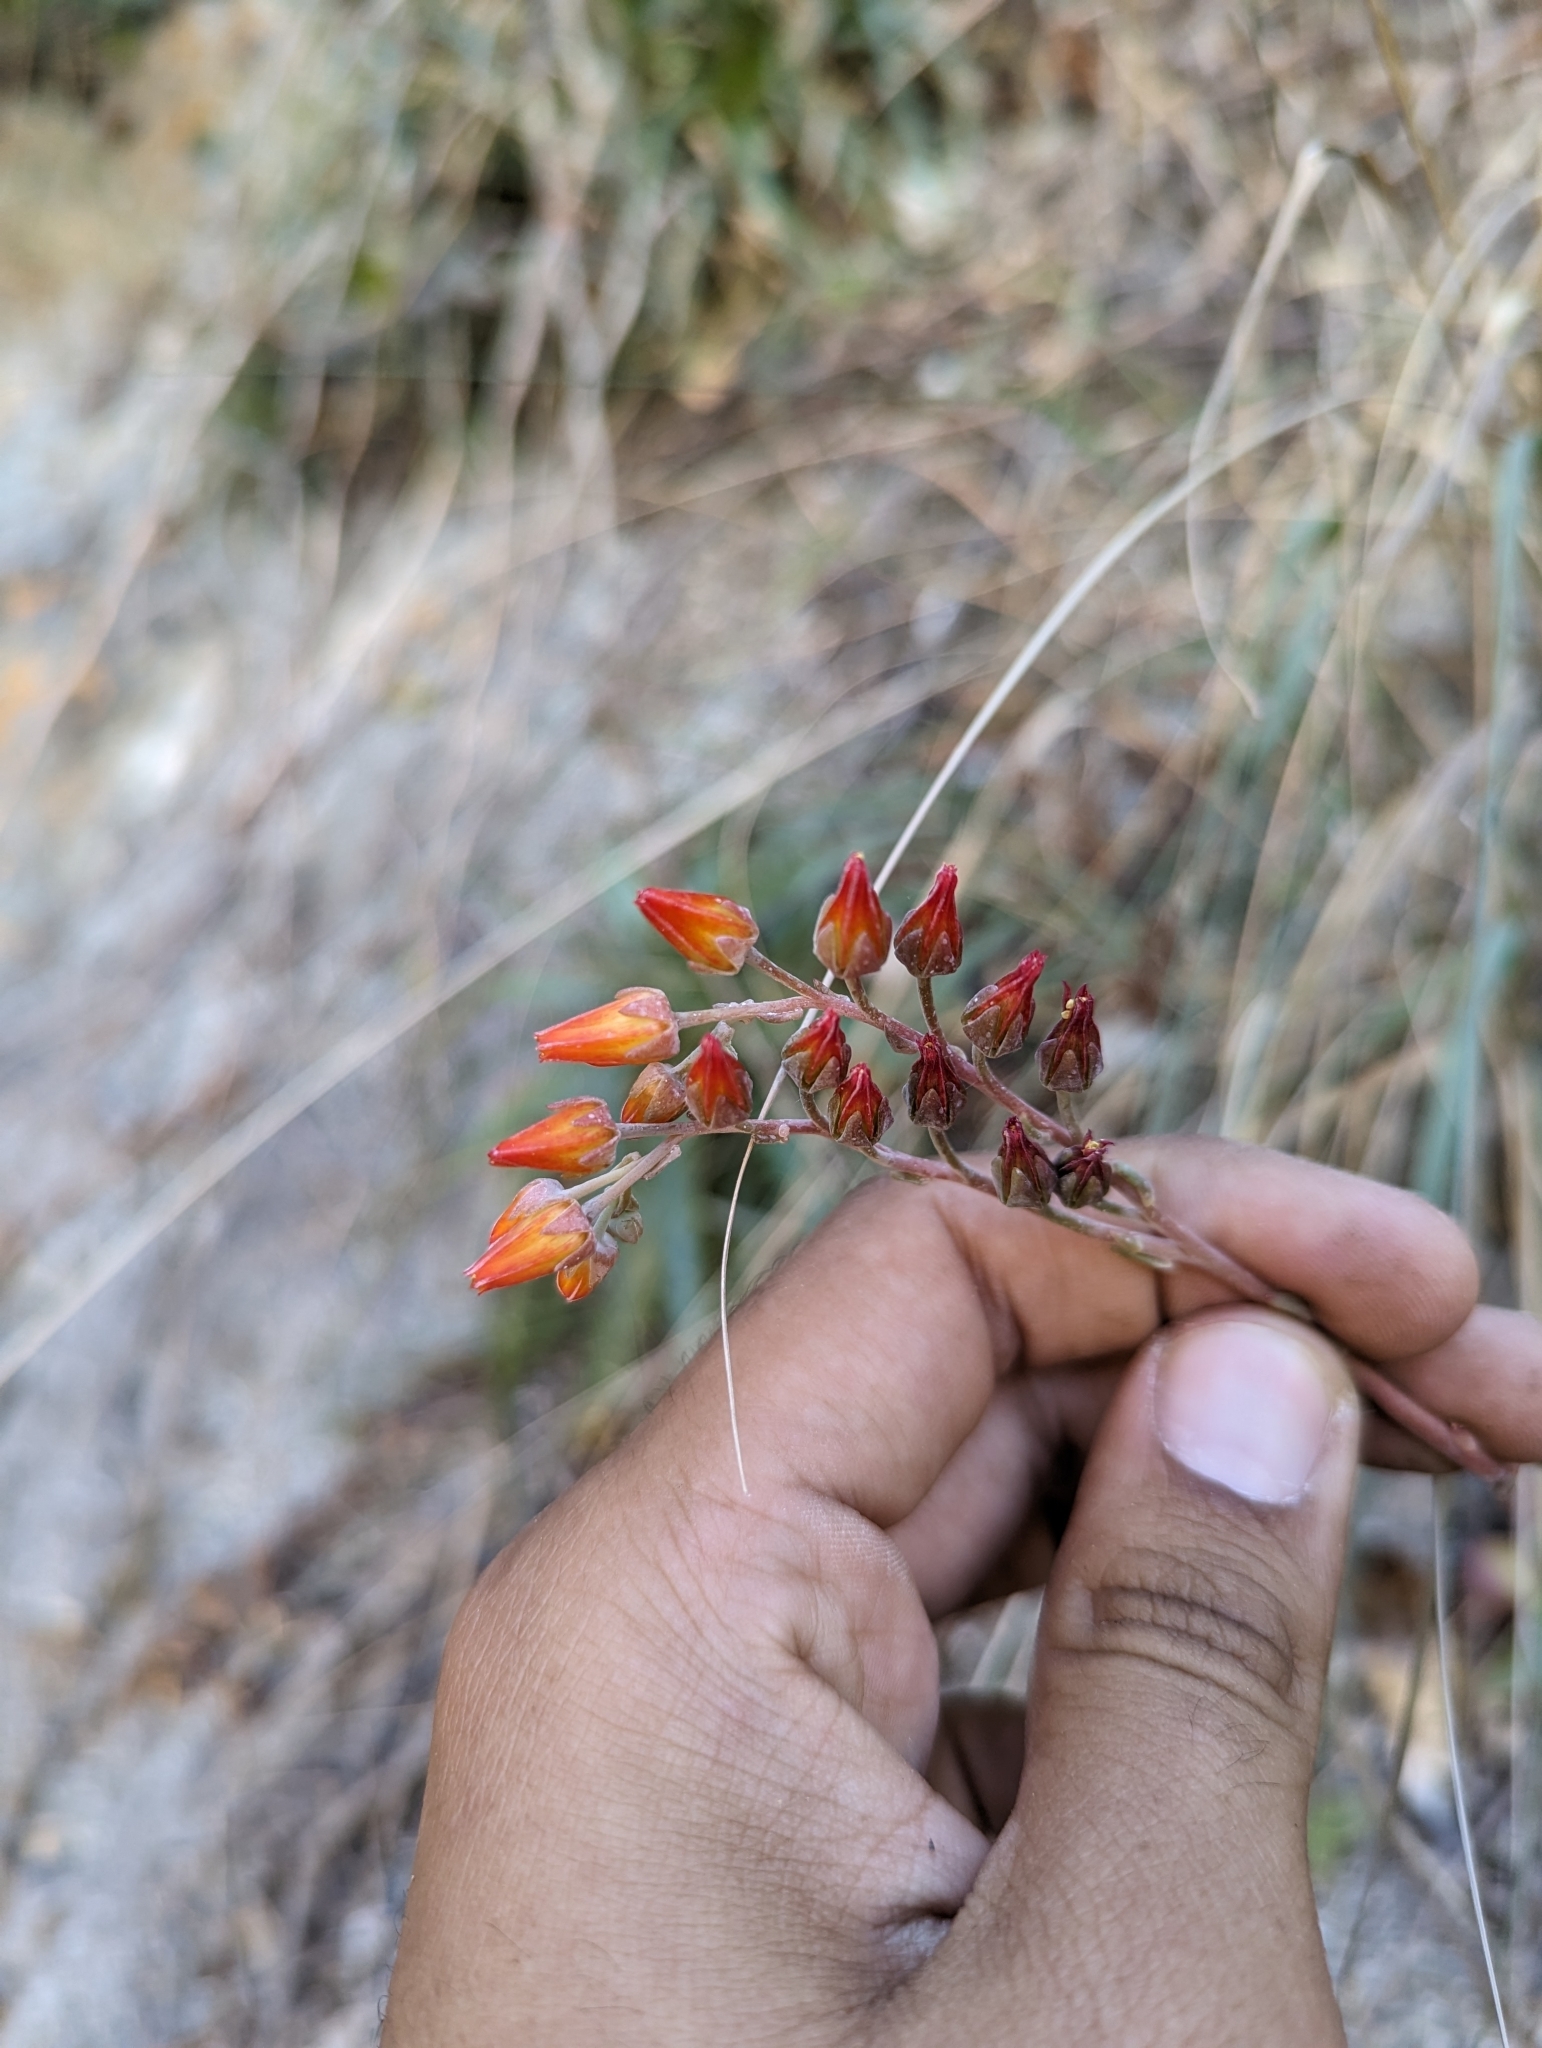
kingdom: Plantae
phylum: Tracheophyta
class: Magnoliopsida
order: Saxifragales
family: Crassulaceae
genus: Dudleya
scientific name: Dudleya nubigena
